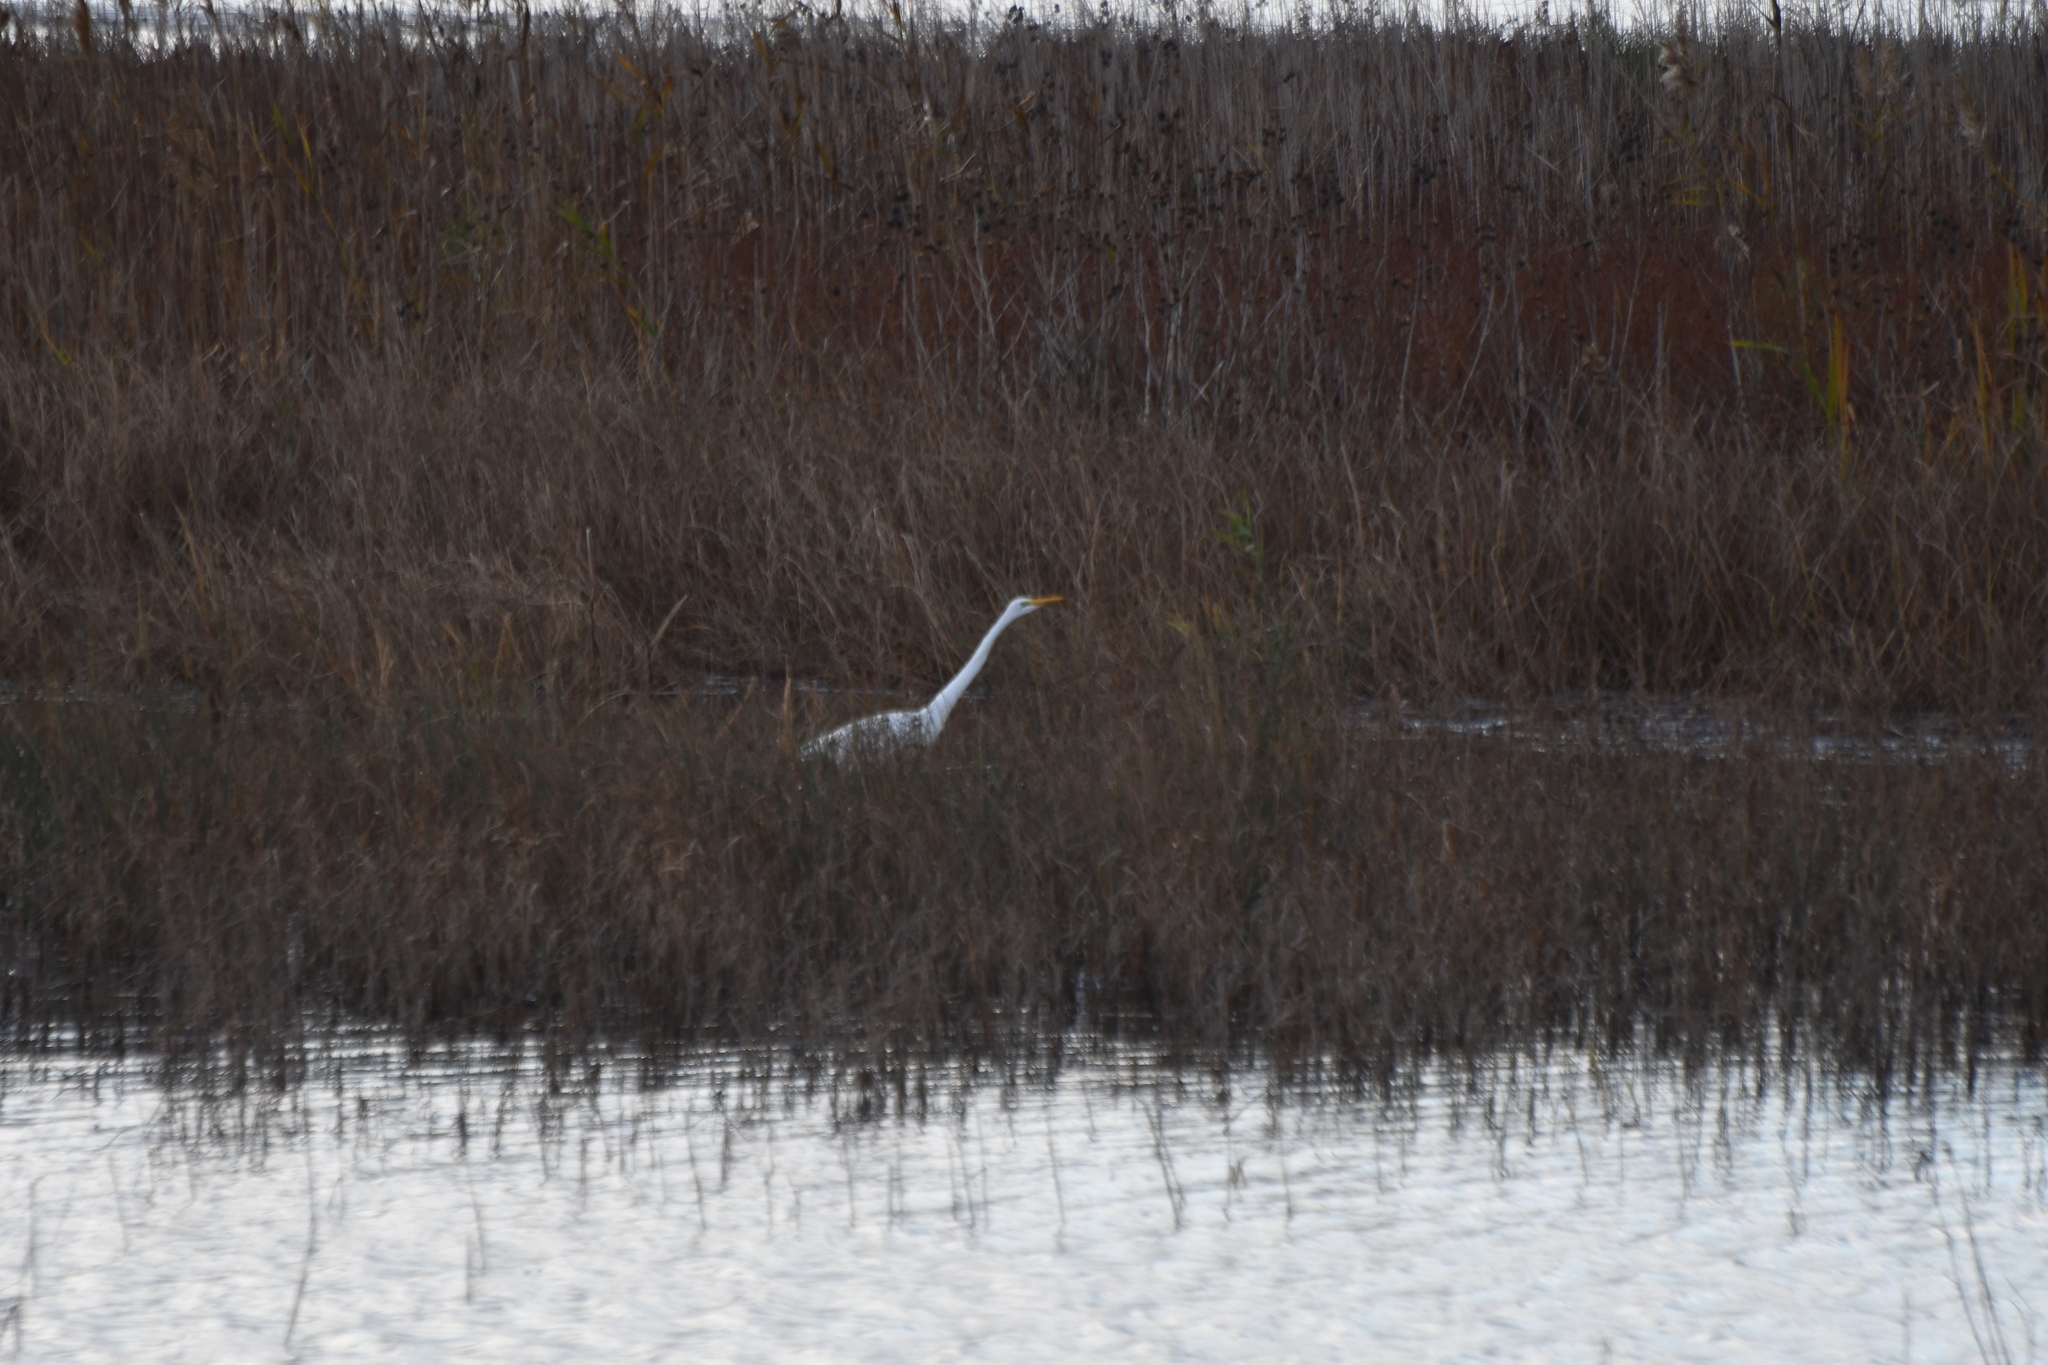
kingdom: Animalia
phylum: Chordata
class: Aves
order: Pelecaniformes
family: Ardeidae
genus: Ardea
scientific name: Ardea alba
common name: Great egret
